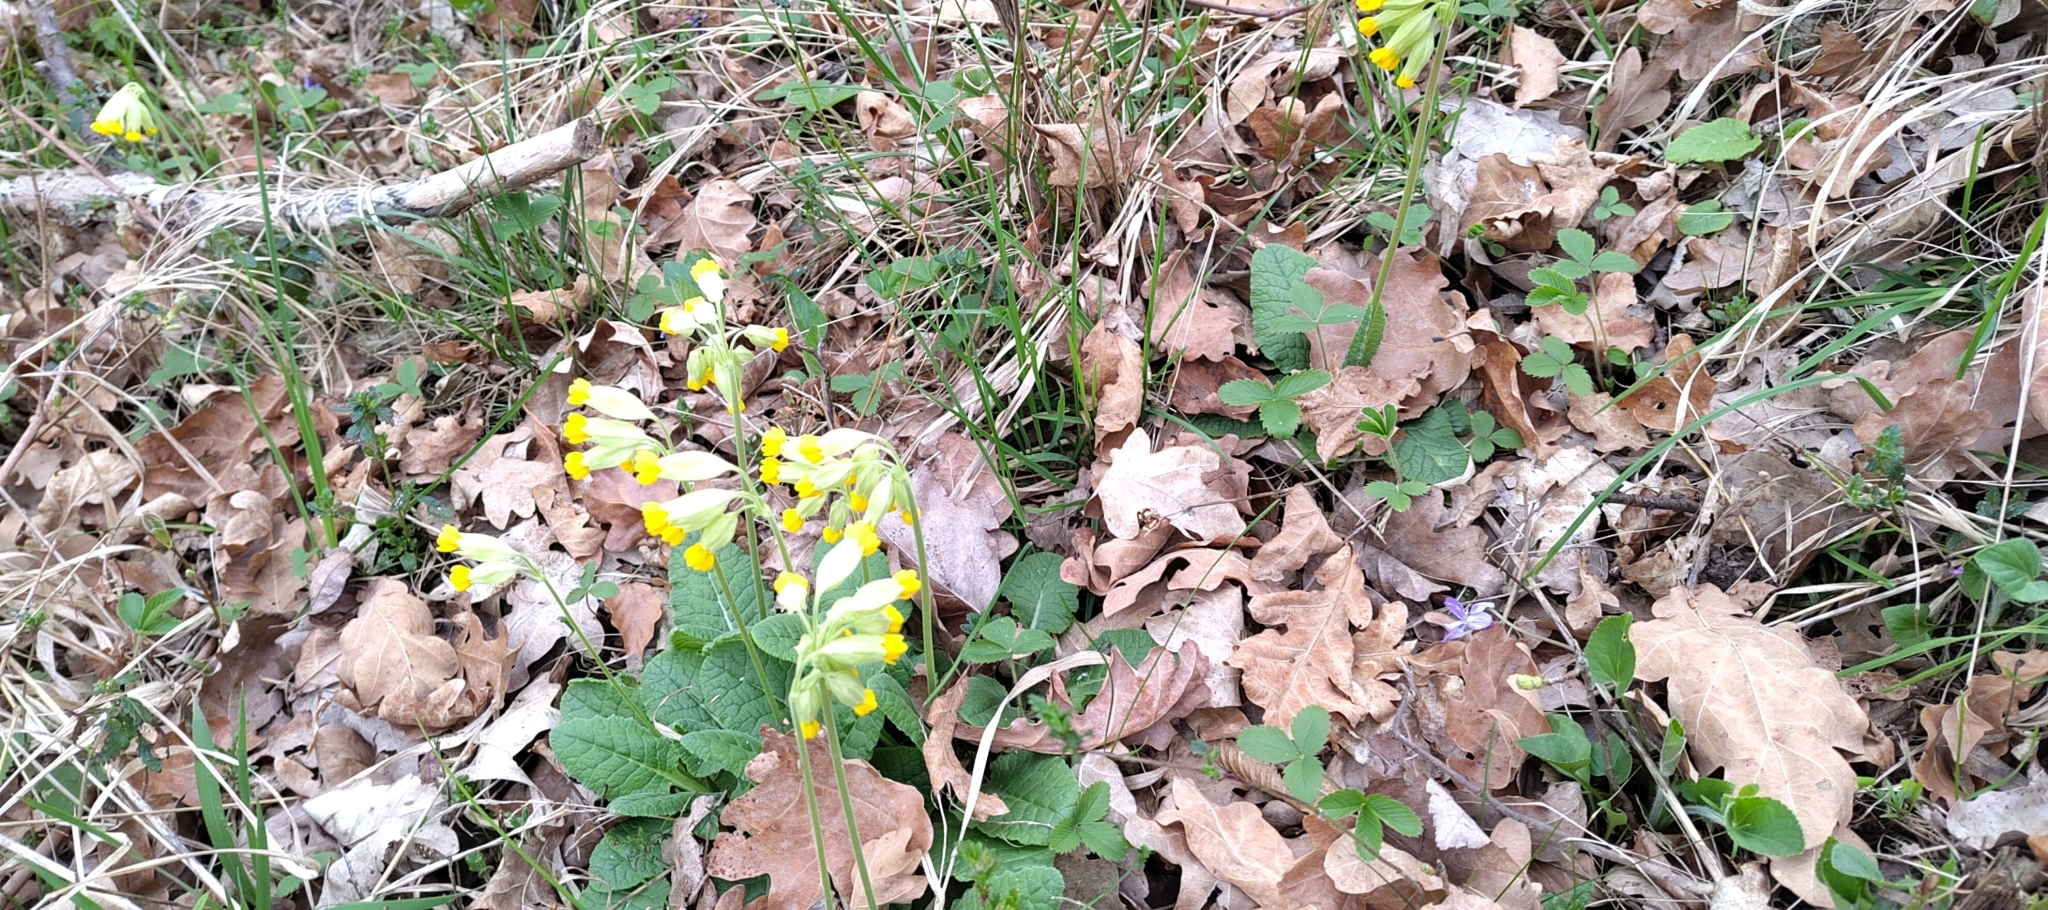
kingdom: Plantae
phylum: Tracheophyta
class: Magnoliopsida
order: Ericales
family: Primulaceae
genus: Primula
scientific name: Primula veris
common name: Cowslip
